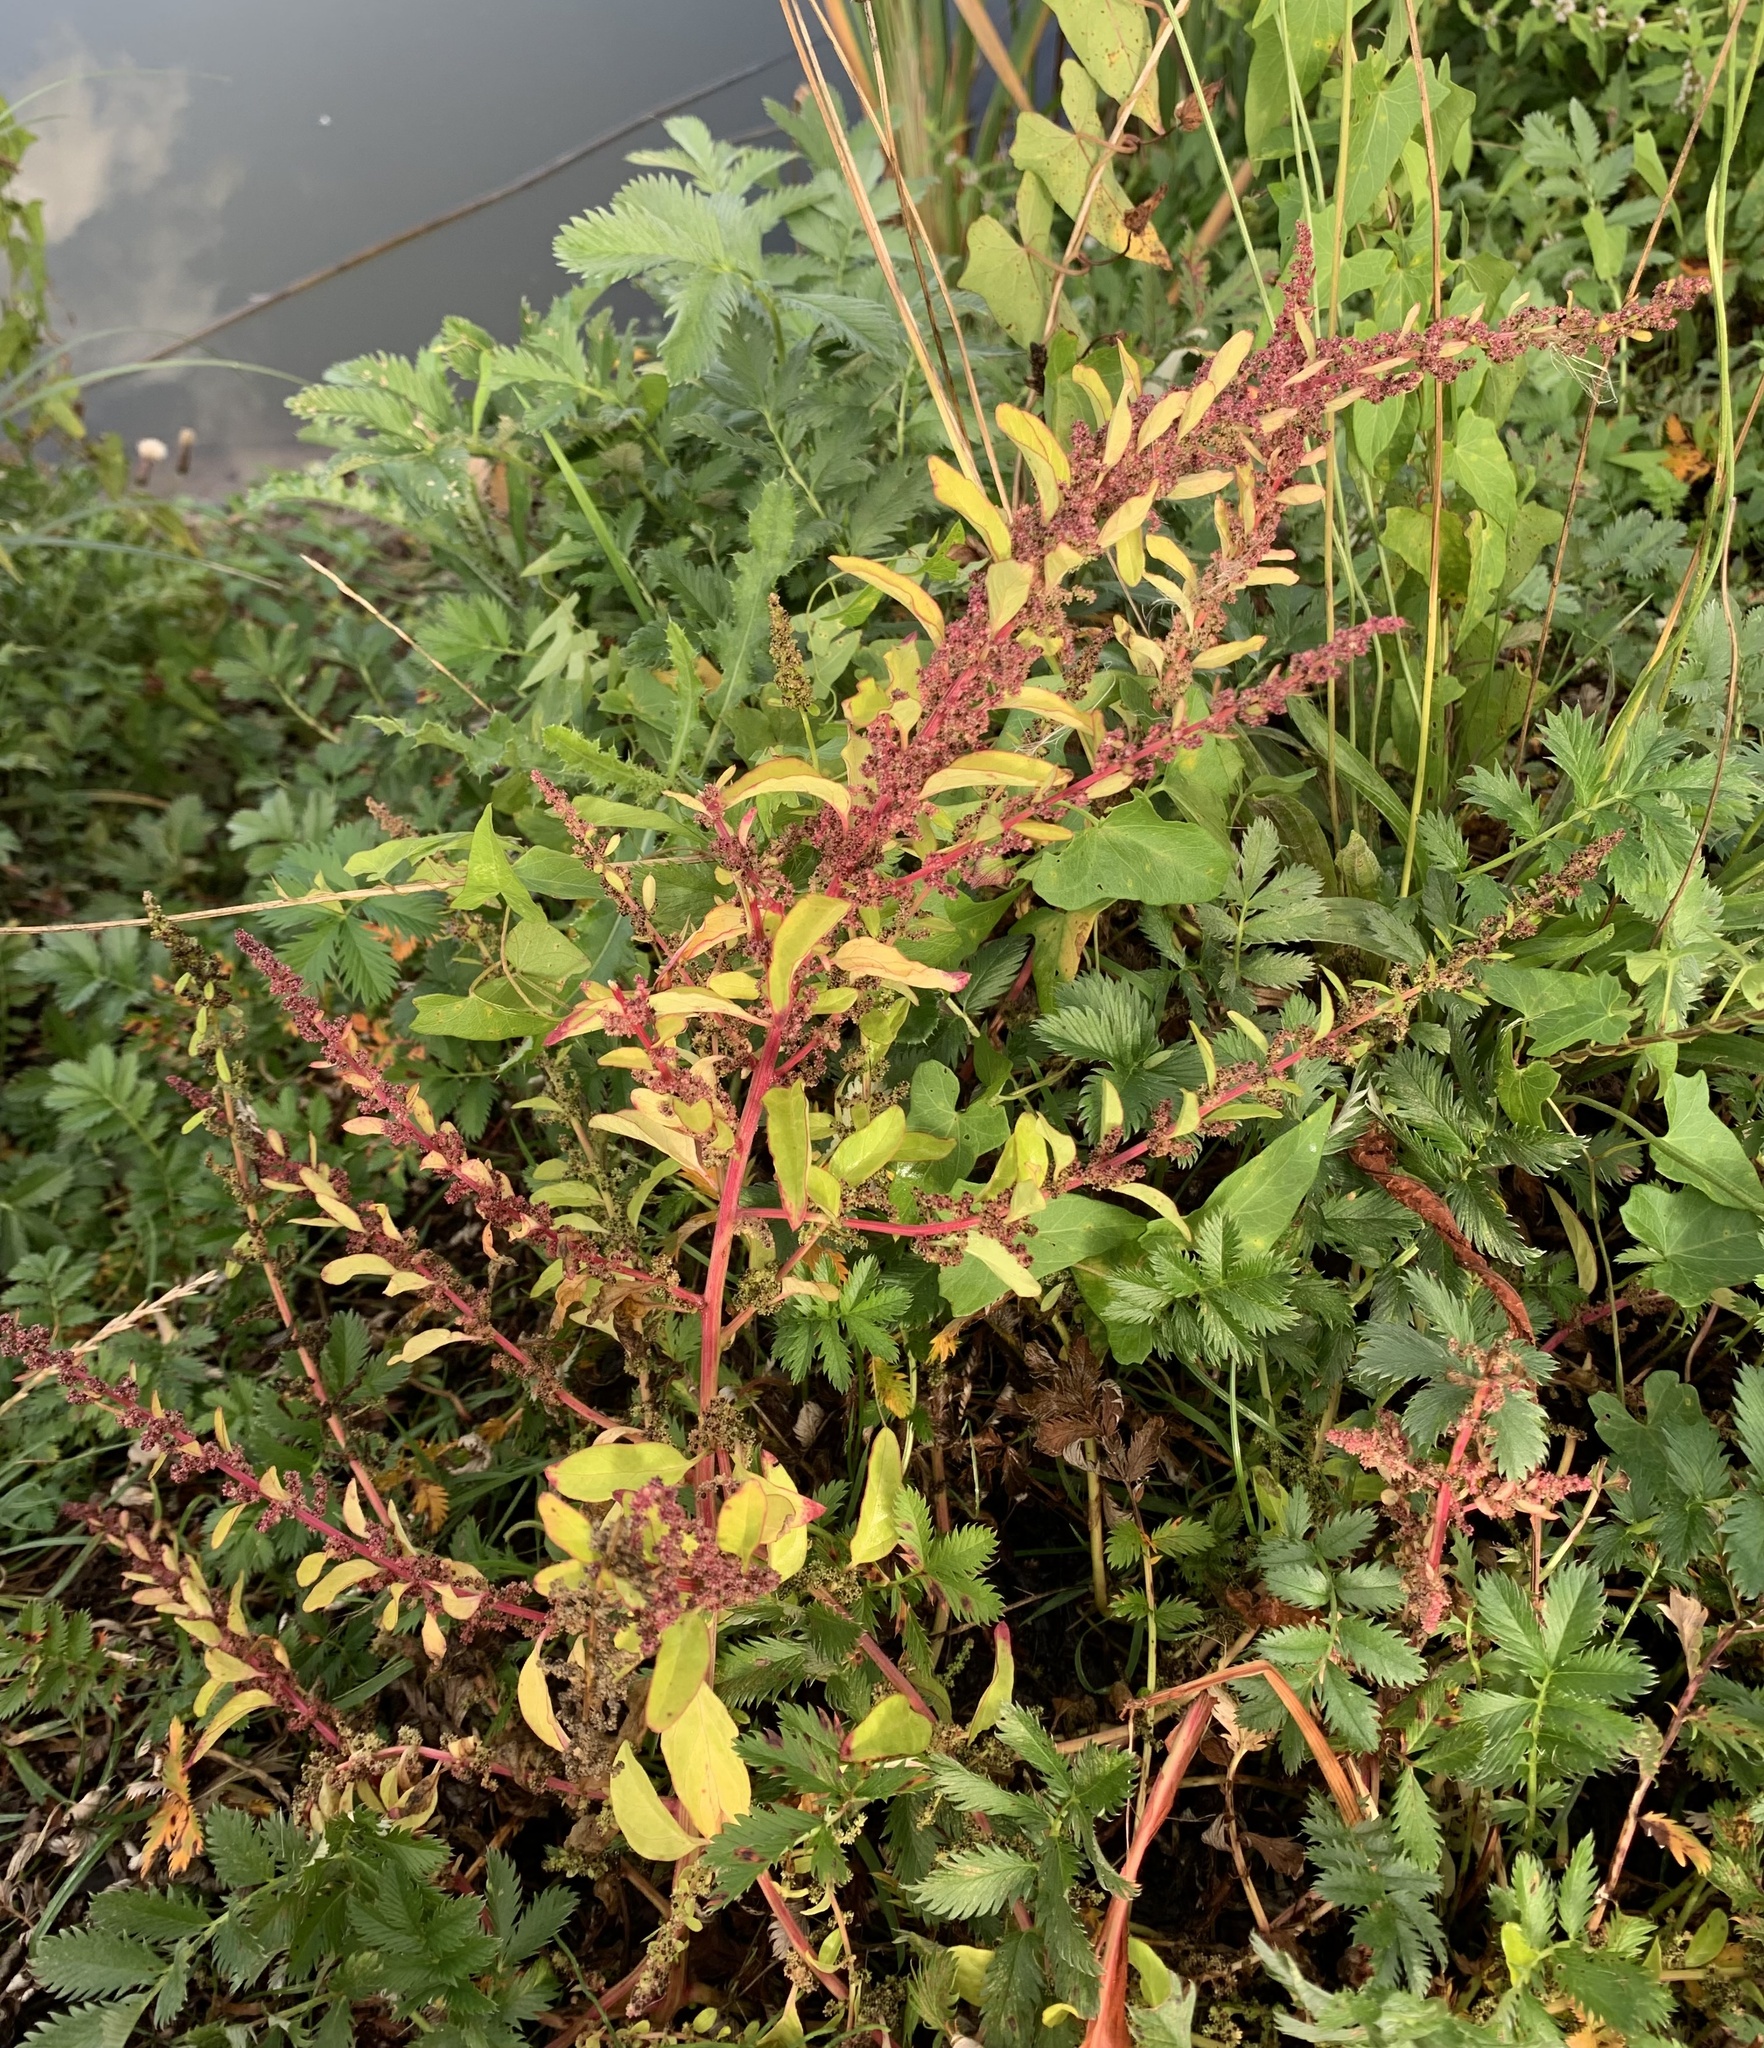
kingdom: Plantae
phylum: Tracheophyta
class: Magnoliopsida
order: Caryophyllales
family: Amaranthaceae
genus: Lipandra
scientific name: Lipandra polysperma
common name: Many-seed goosefoot
